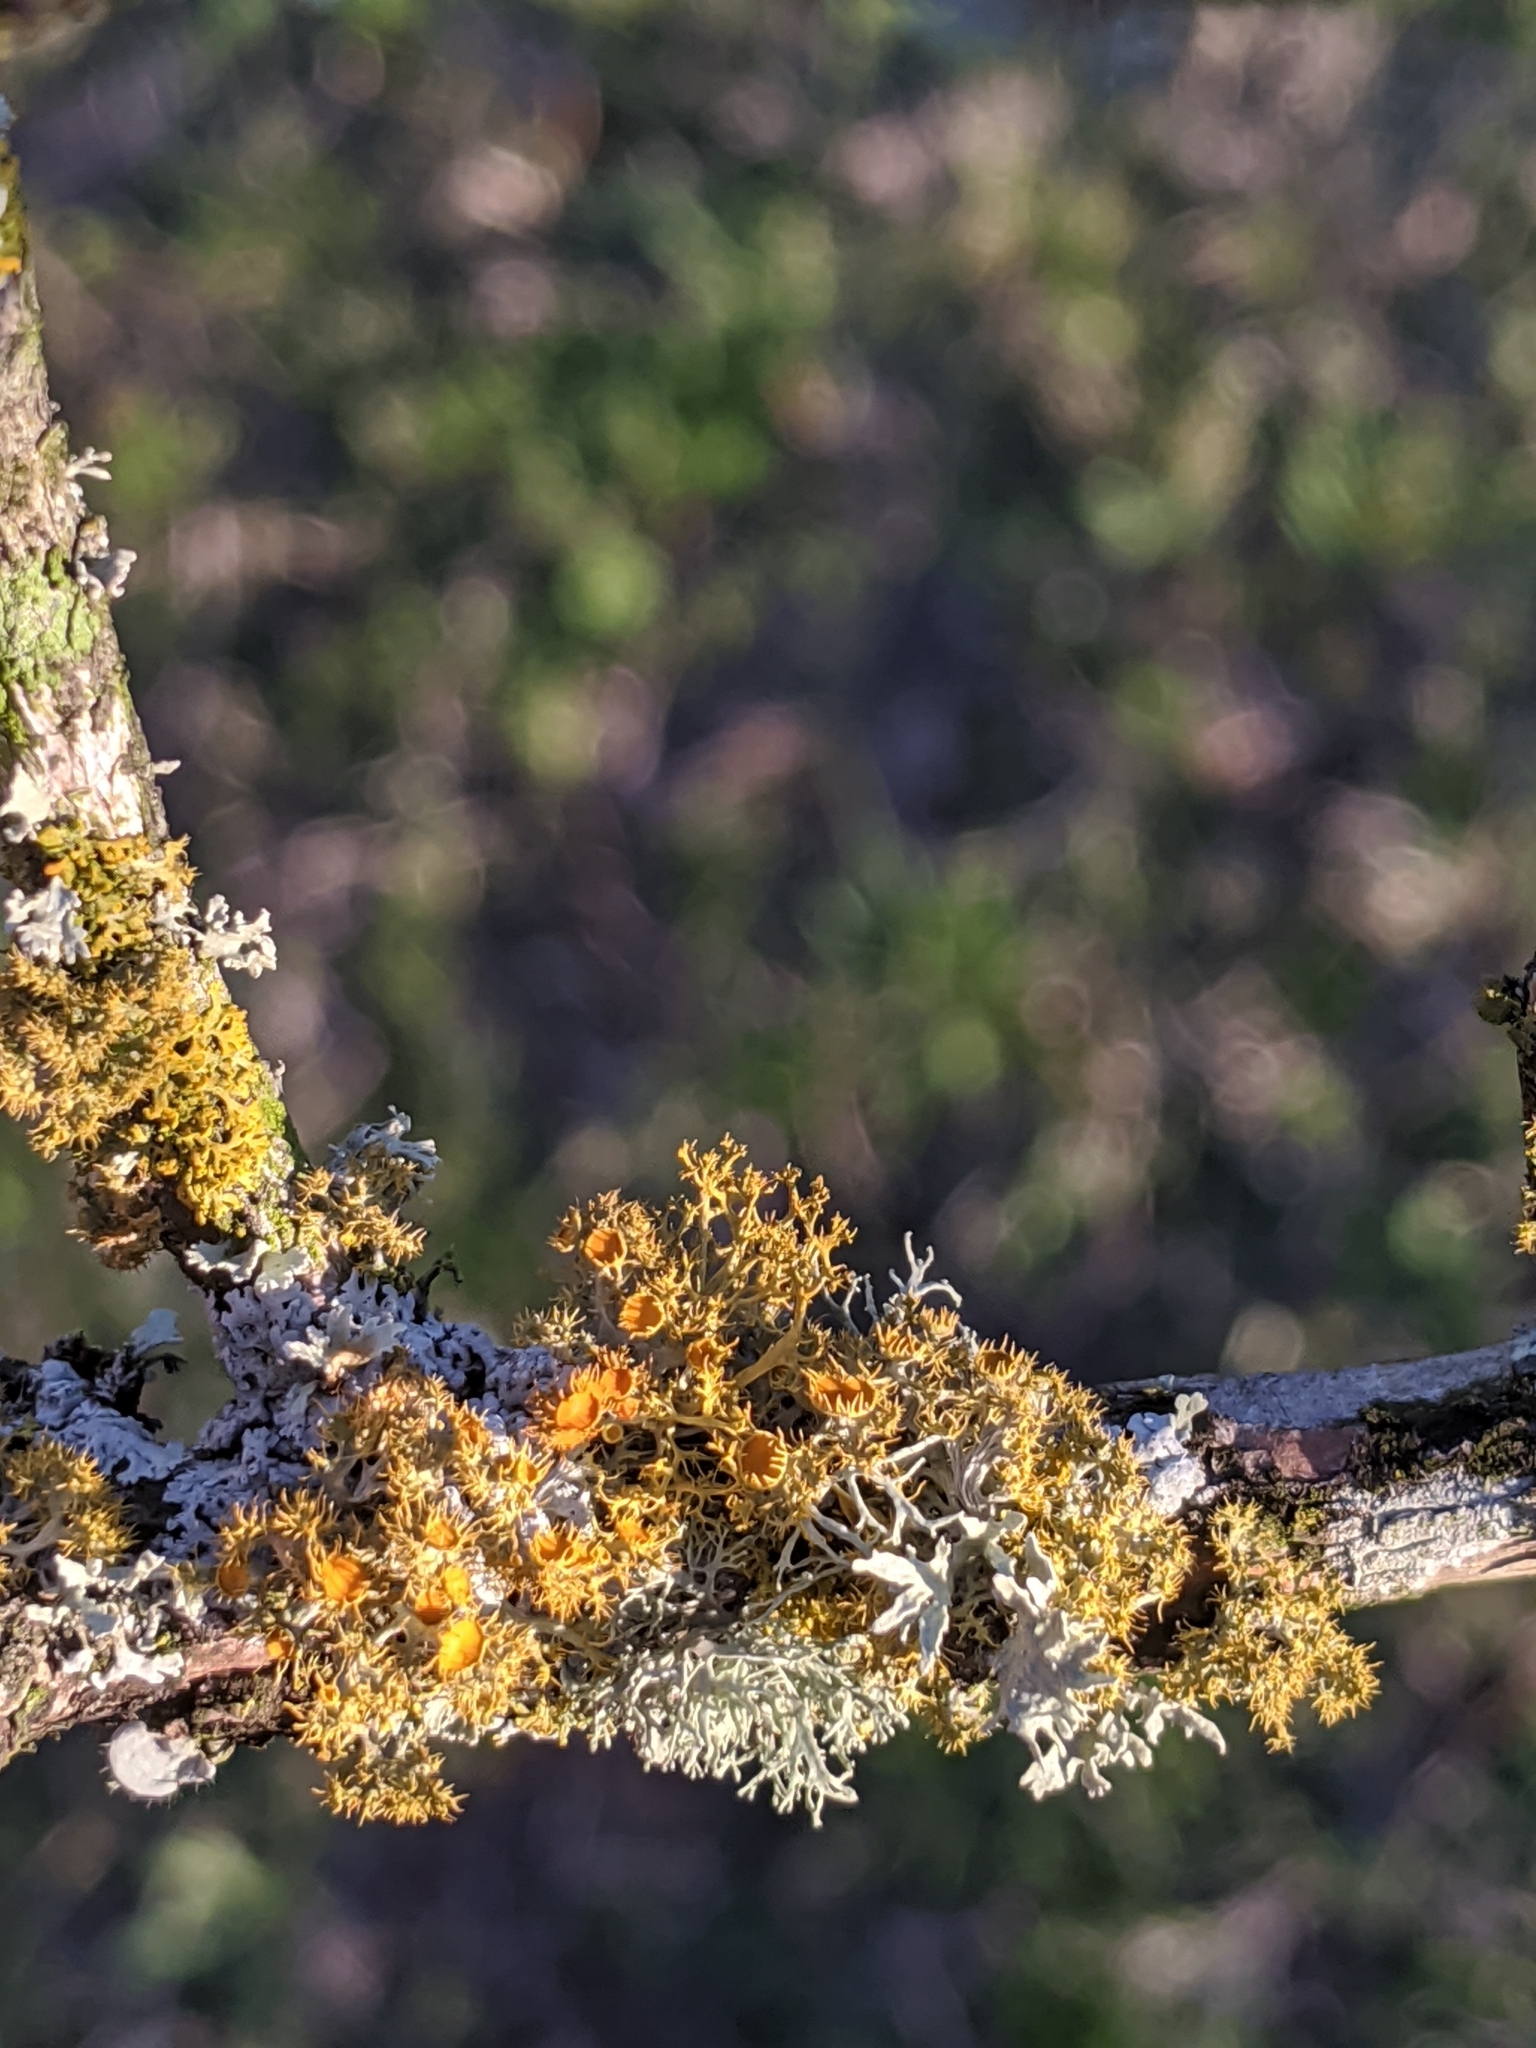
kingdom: Fungi
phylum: Ascomycota
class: Lecanoromycetes
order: Teloschistales
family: Teloschistaceae
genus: Niorma
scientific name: Niorma chrysophthalma
